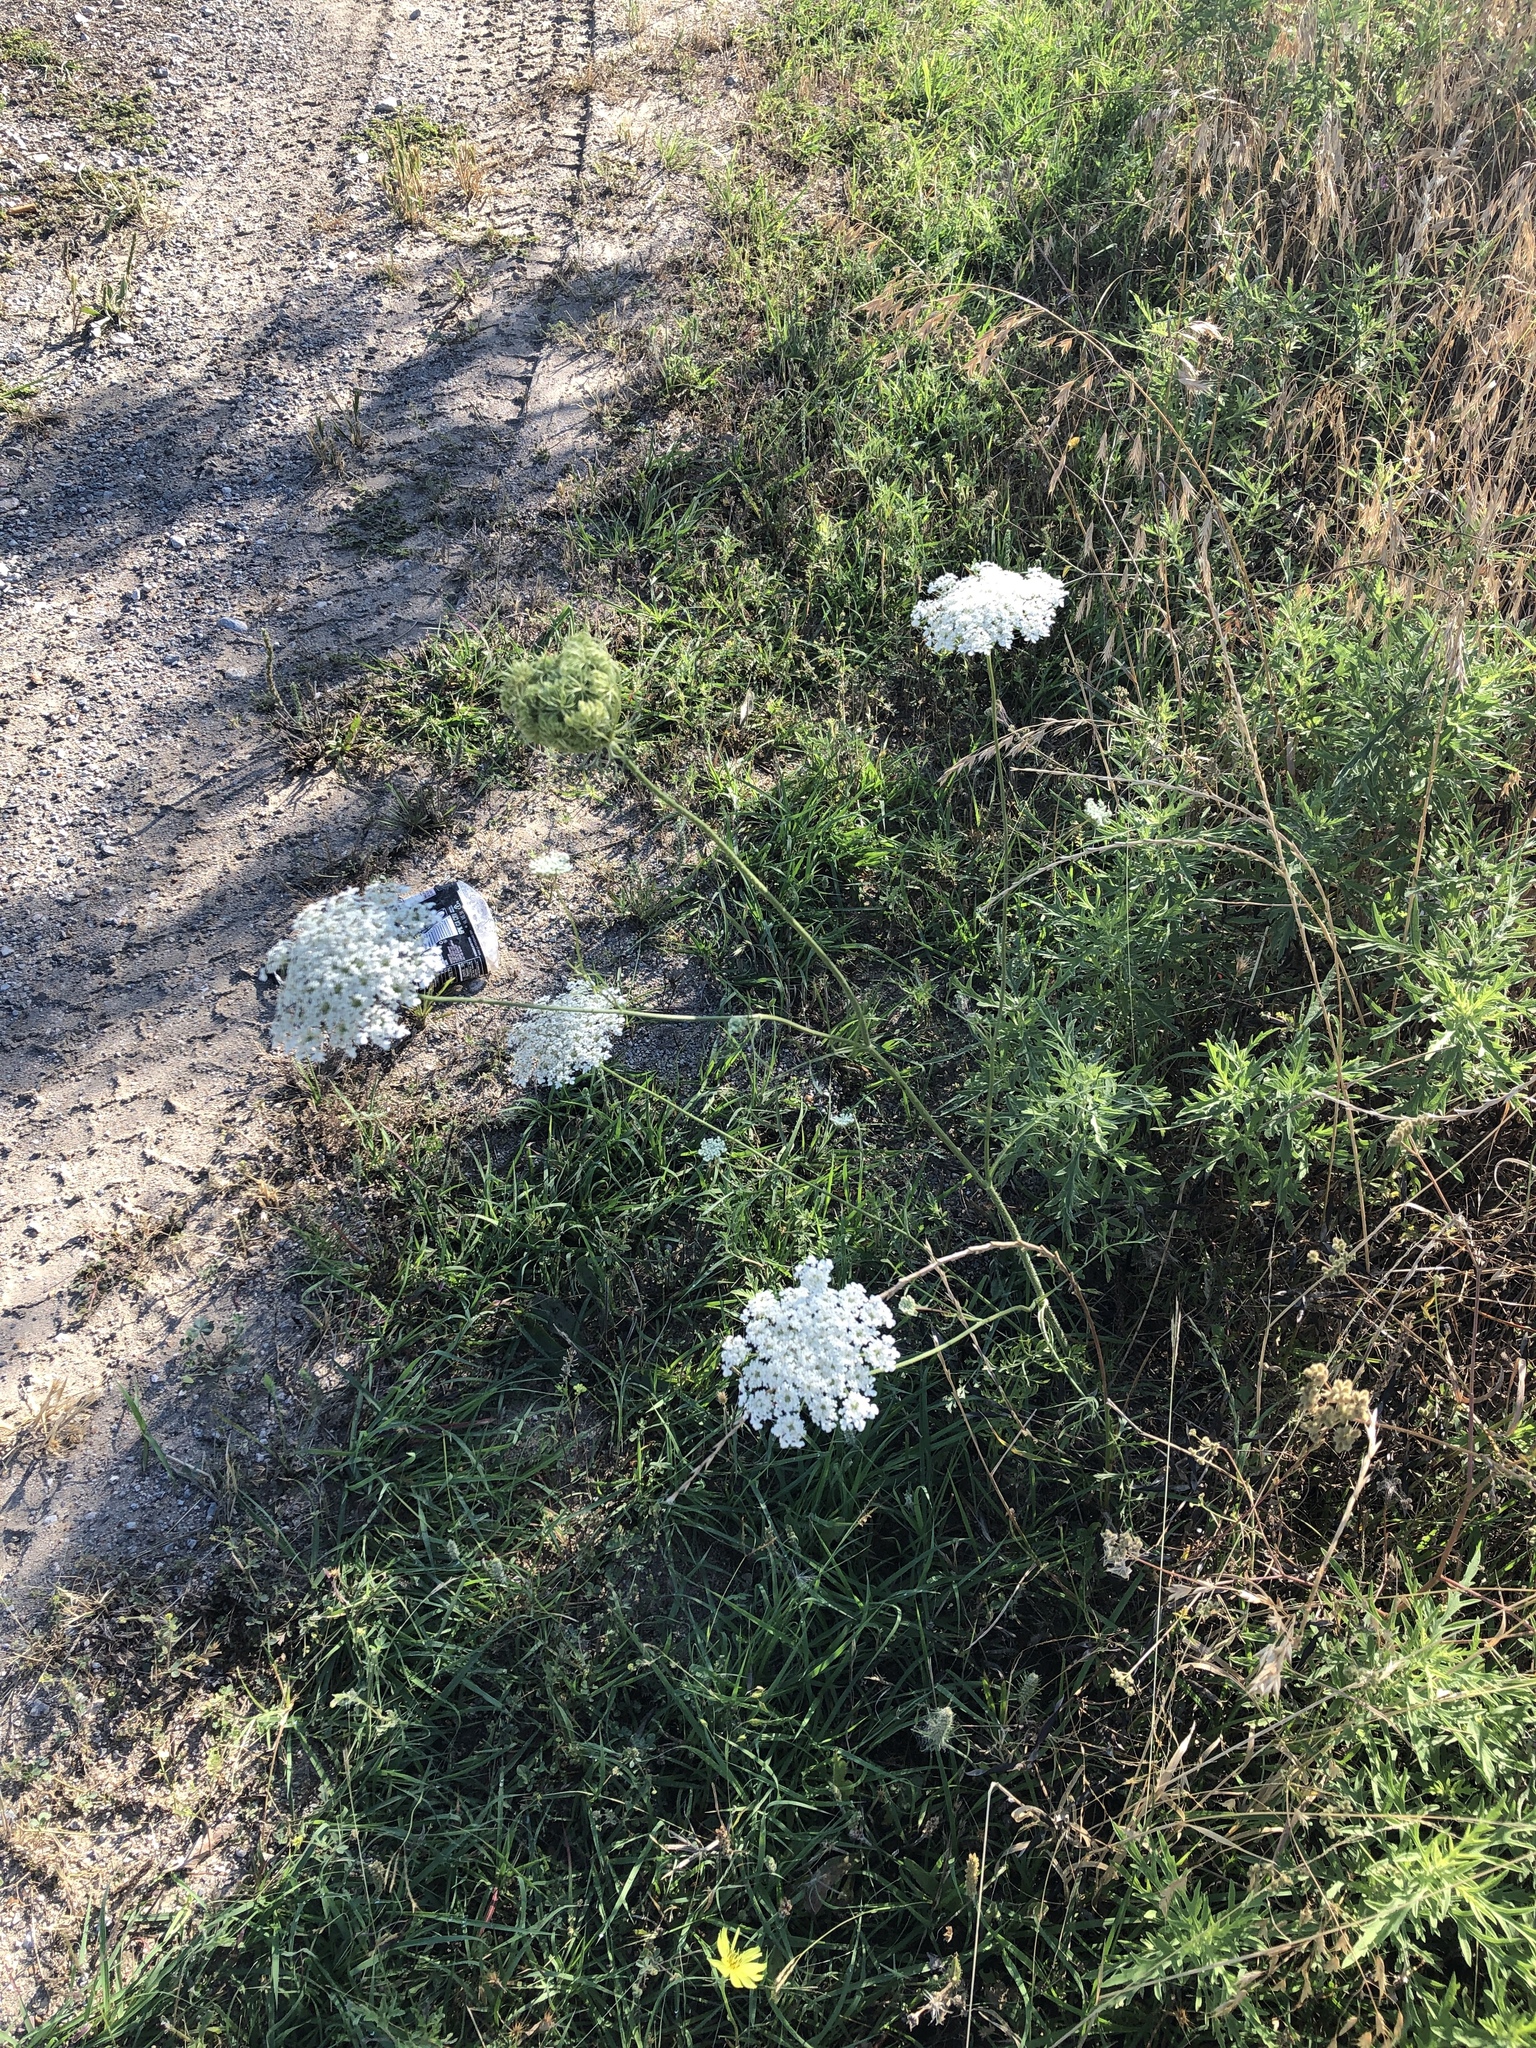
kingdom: Plantae
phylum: Tracheophyta
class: Magnoliopsida
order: Apiales
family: Apiaceae
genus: Daucus
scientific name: Daucus carota
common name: Wild carrot
